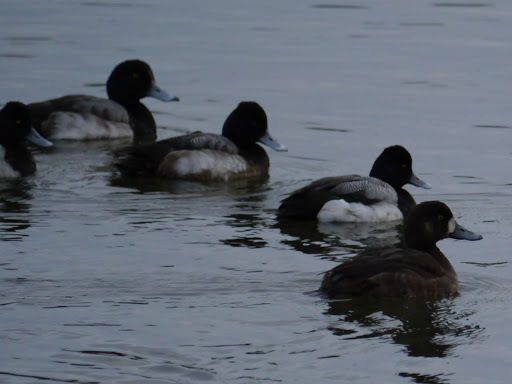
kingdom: Animalia
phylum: Chordata
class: Aves
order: Anseriformes
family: Anatidae
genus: Aythya
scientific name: Aythya marila
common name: Greater scaup
